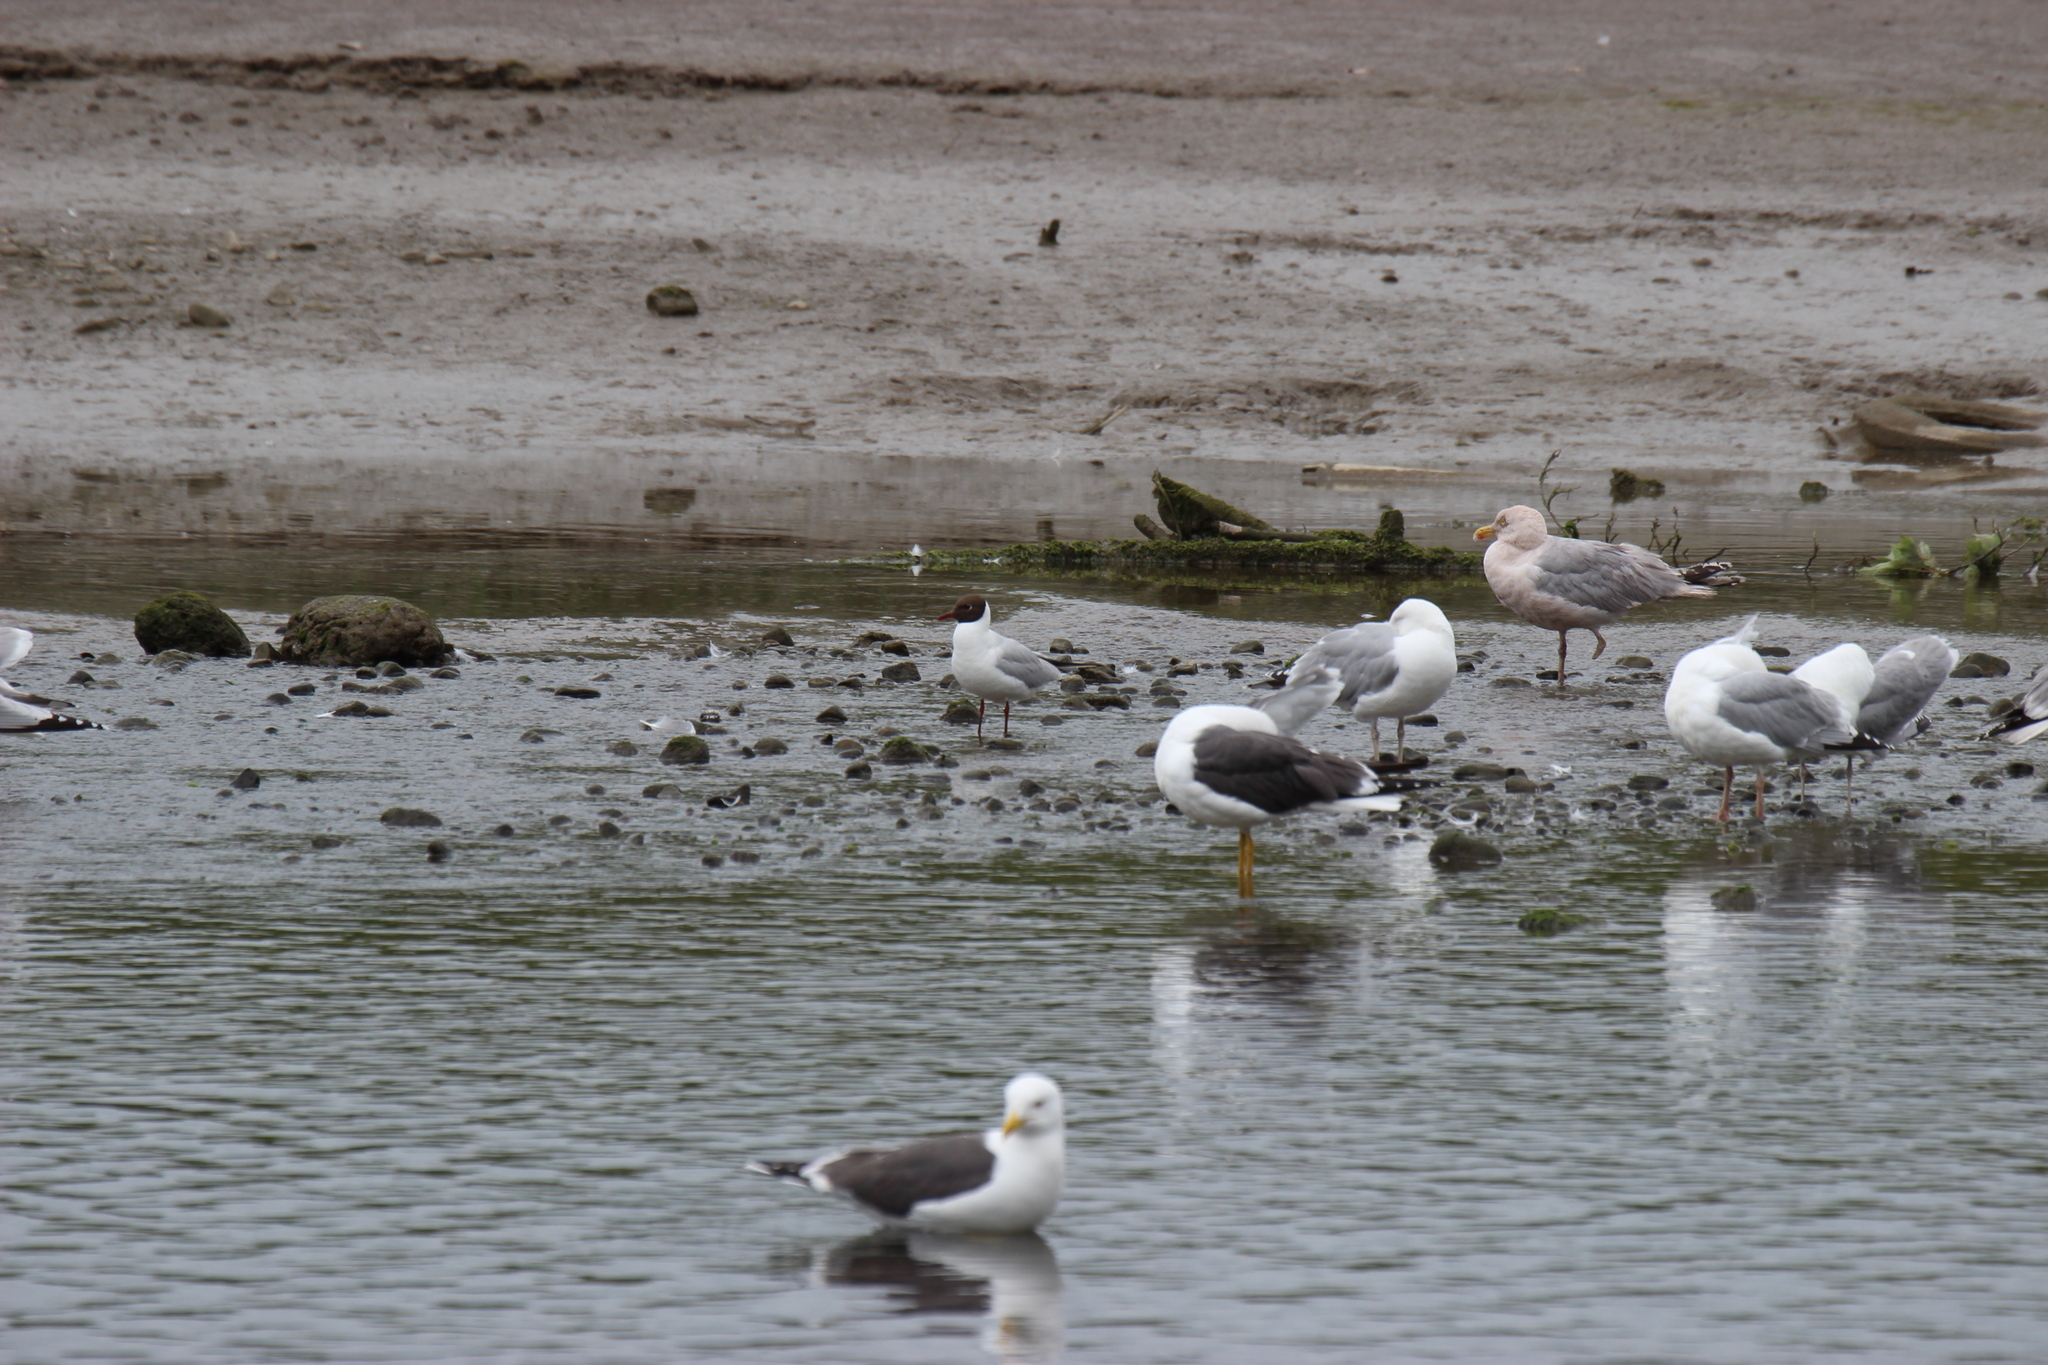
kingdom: Animalia
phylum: Chordata
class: Aves
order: Charadriiformes
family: Laridae
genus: Chroicocephalus
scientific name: Chroicocephalus ridibundus
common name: Black-headed gull
